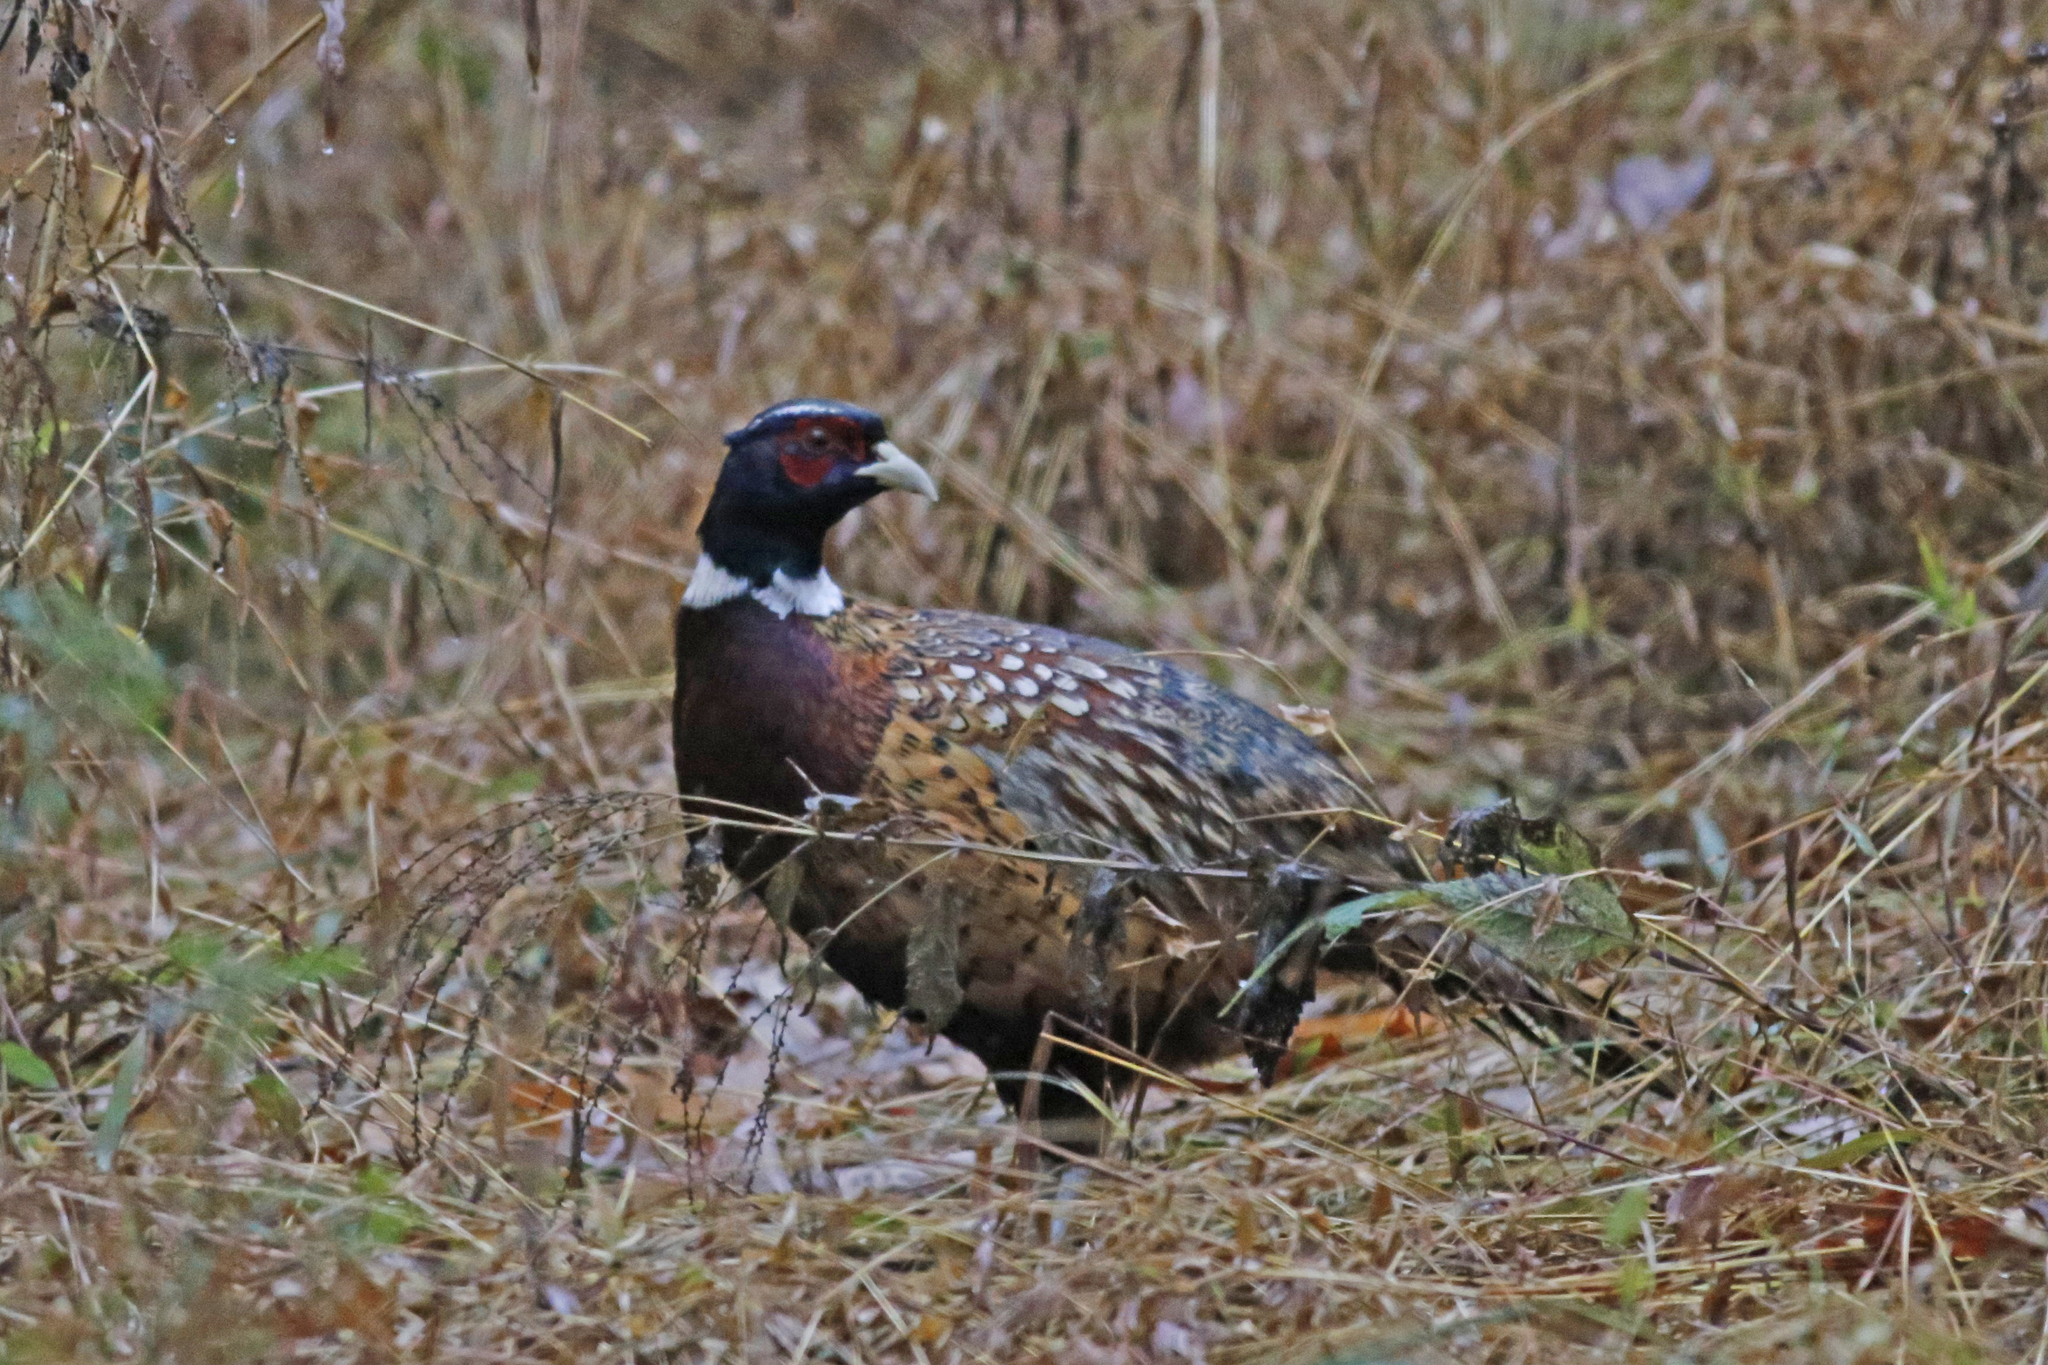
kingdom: Animalia
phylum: Chordata
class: Aves
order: Galliformes
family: Phasianidae
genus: Phasianus
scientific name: Phasianus colchicus
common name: Common pheasant
